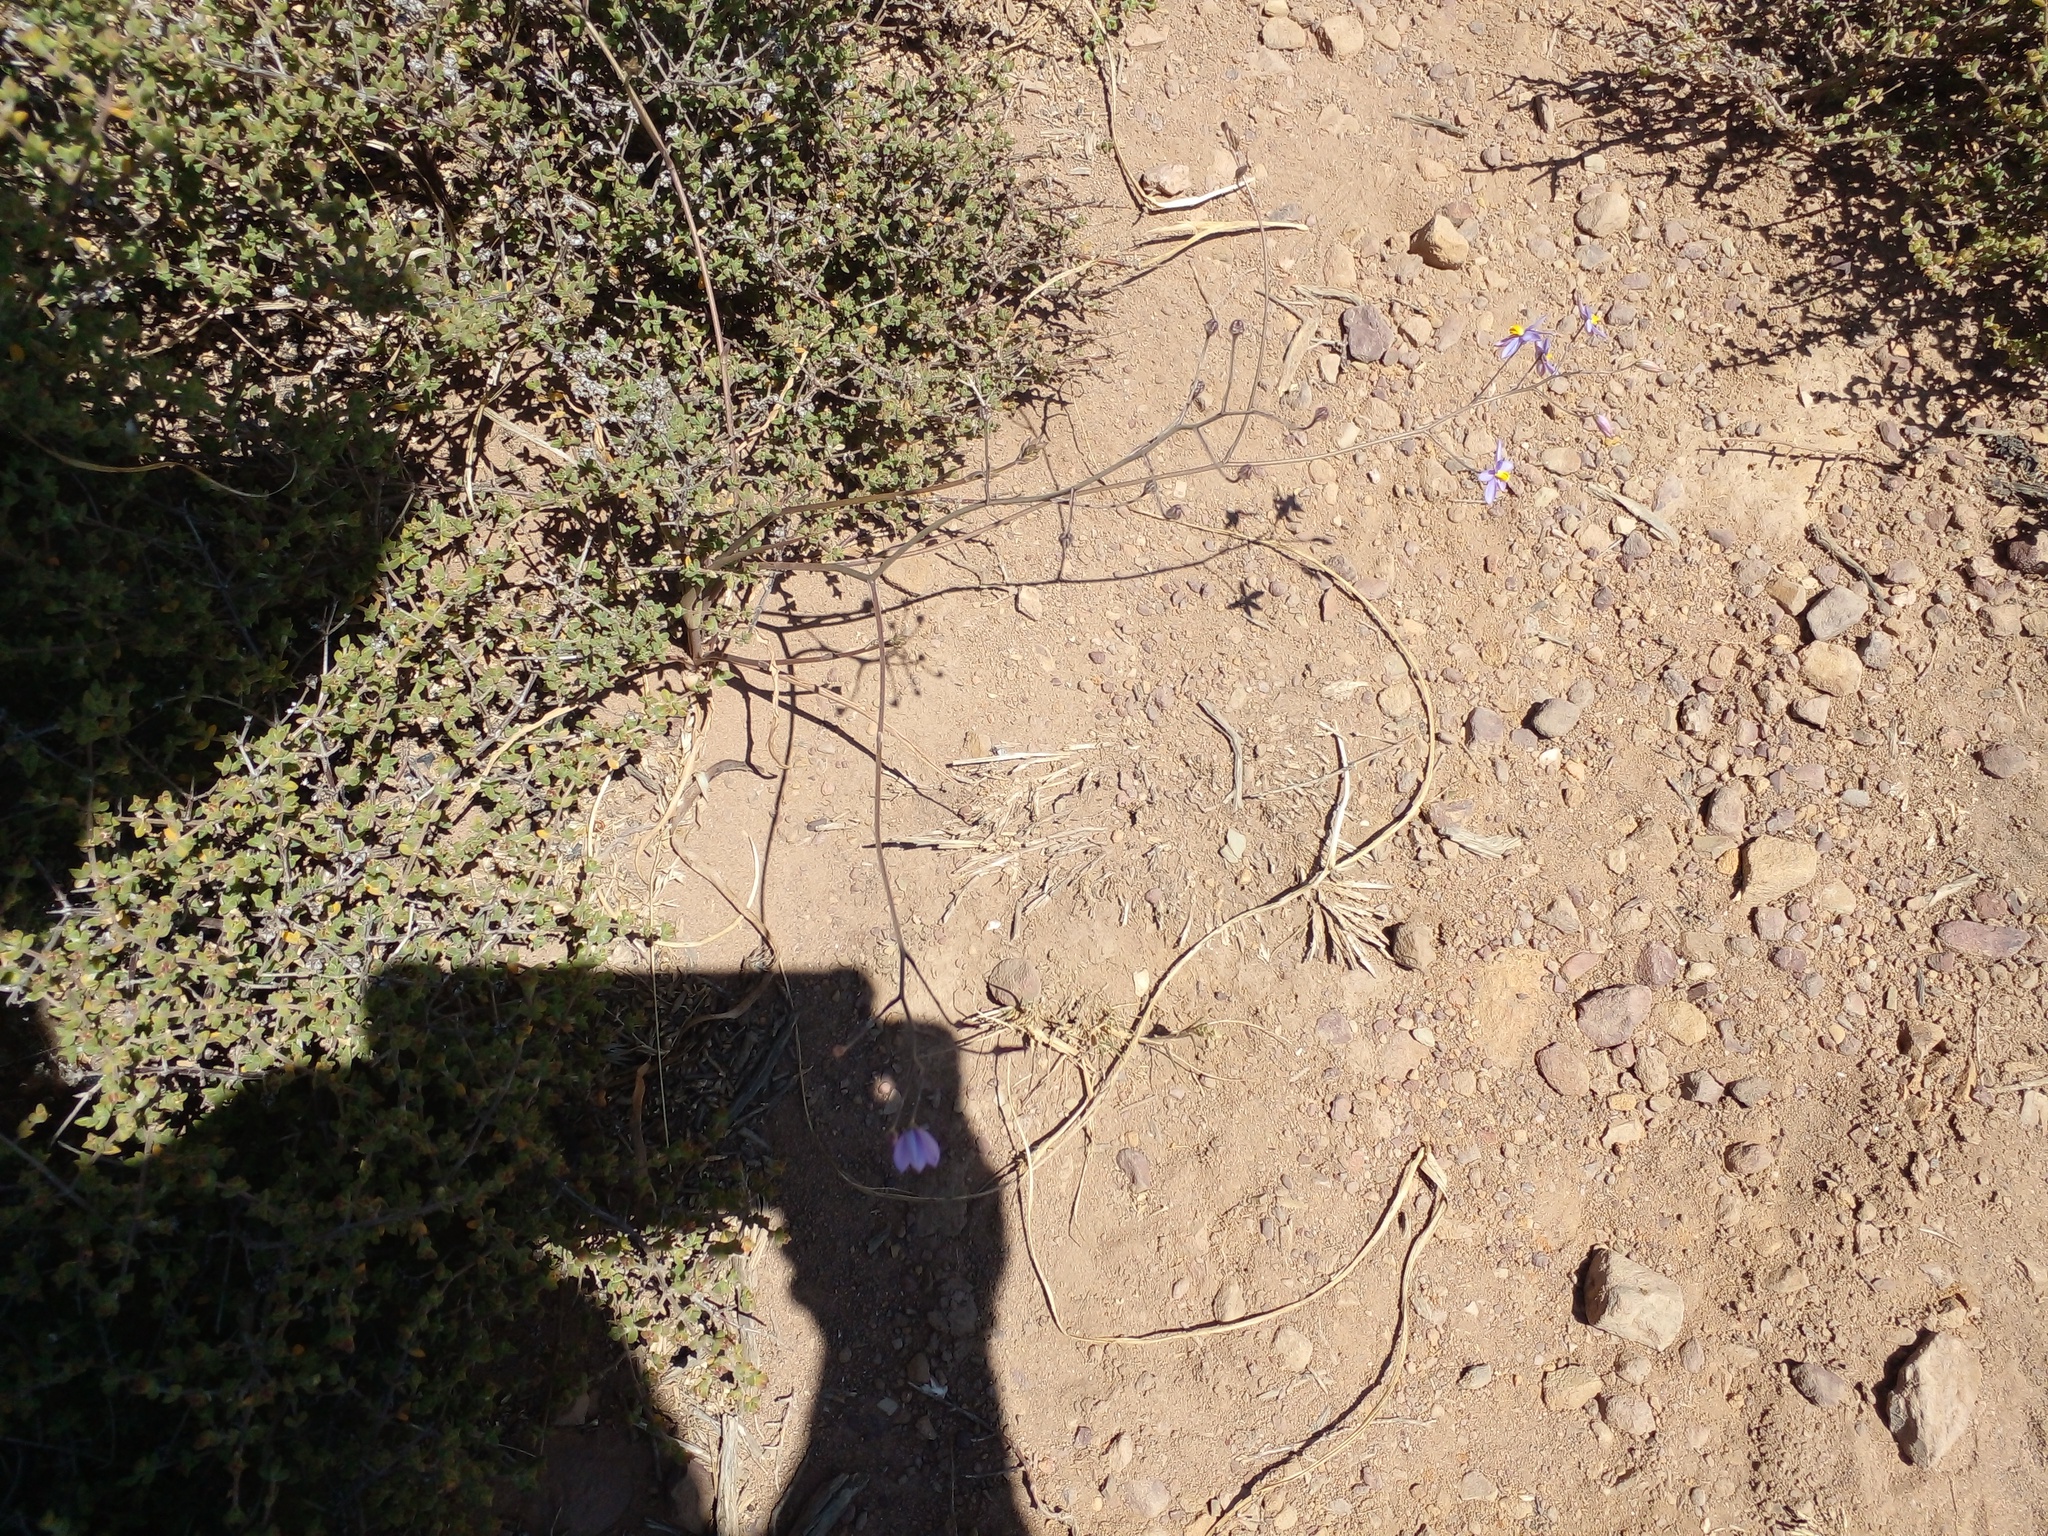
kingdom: Plantae
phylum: Tracheophyta
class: Magnoliopsida
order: Caryophyllales
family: Aizoaceae
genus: Drosanthemum
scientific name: Drosanthemum parvifolium
